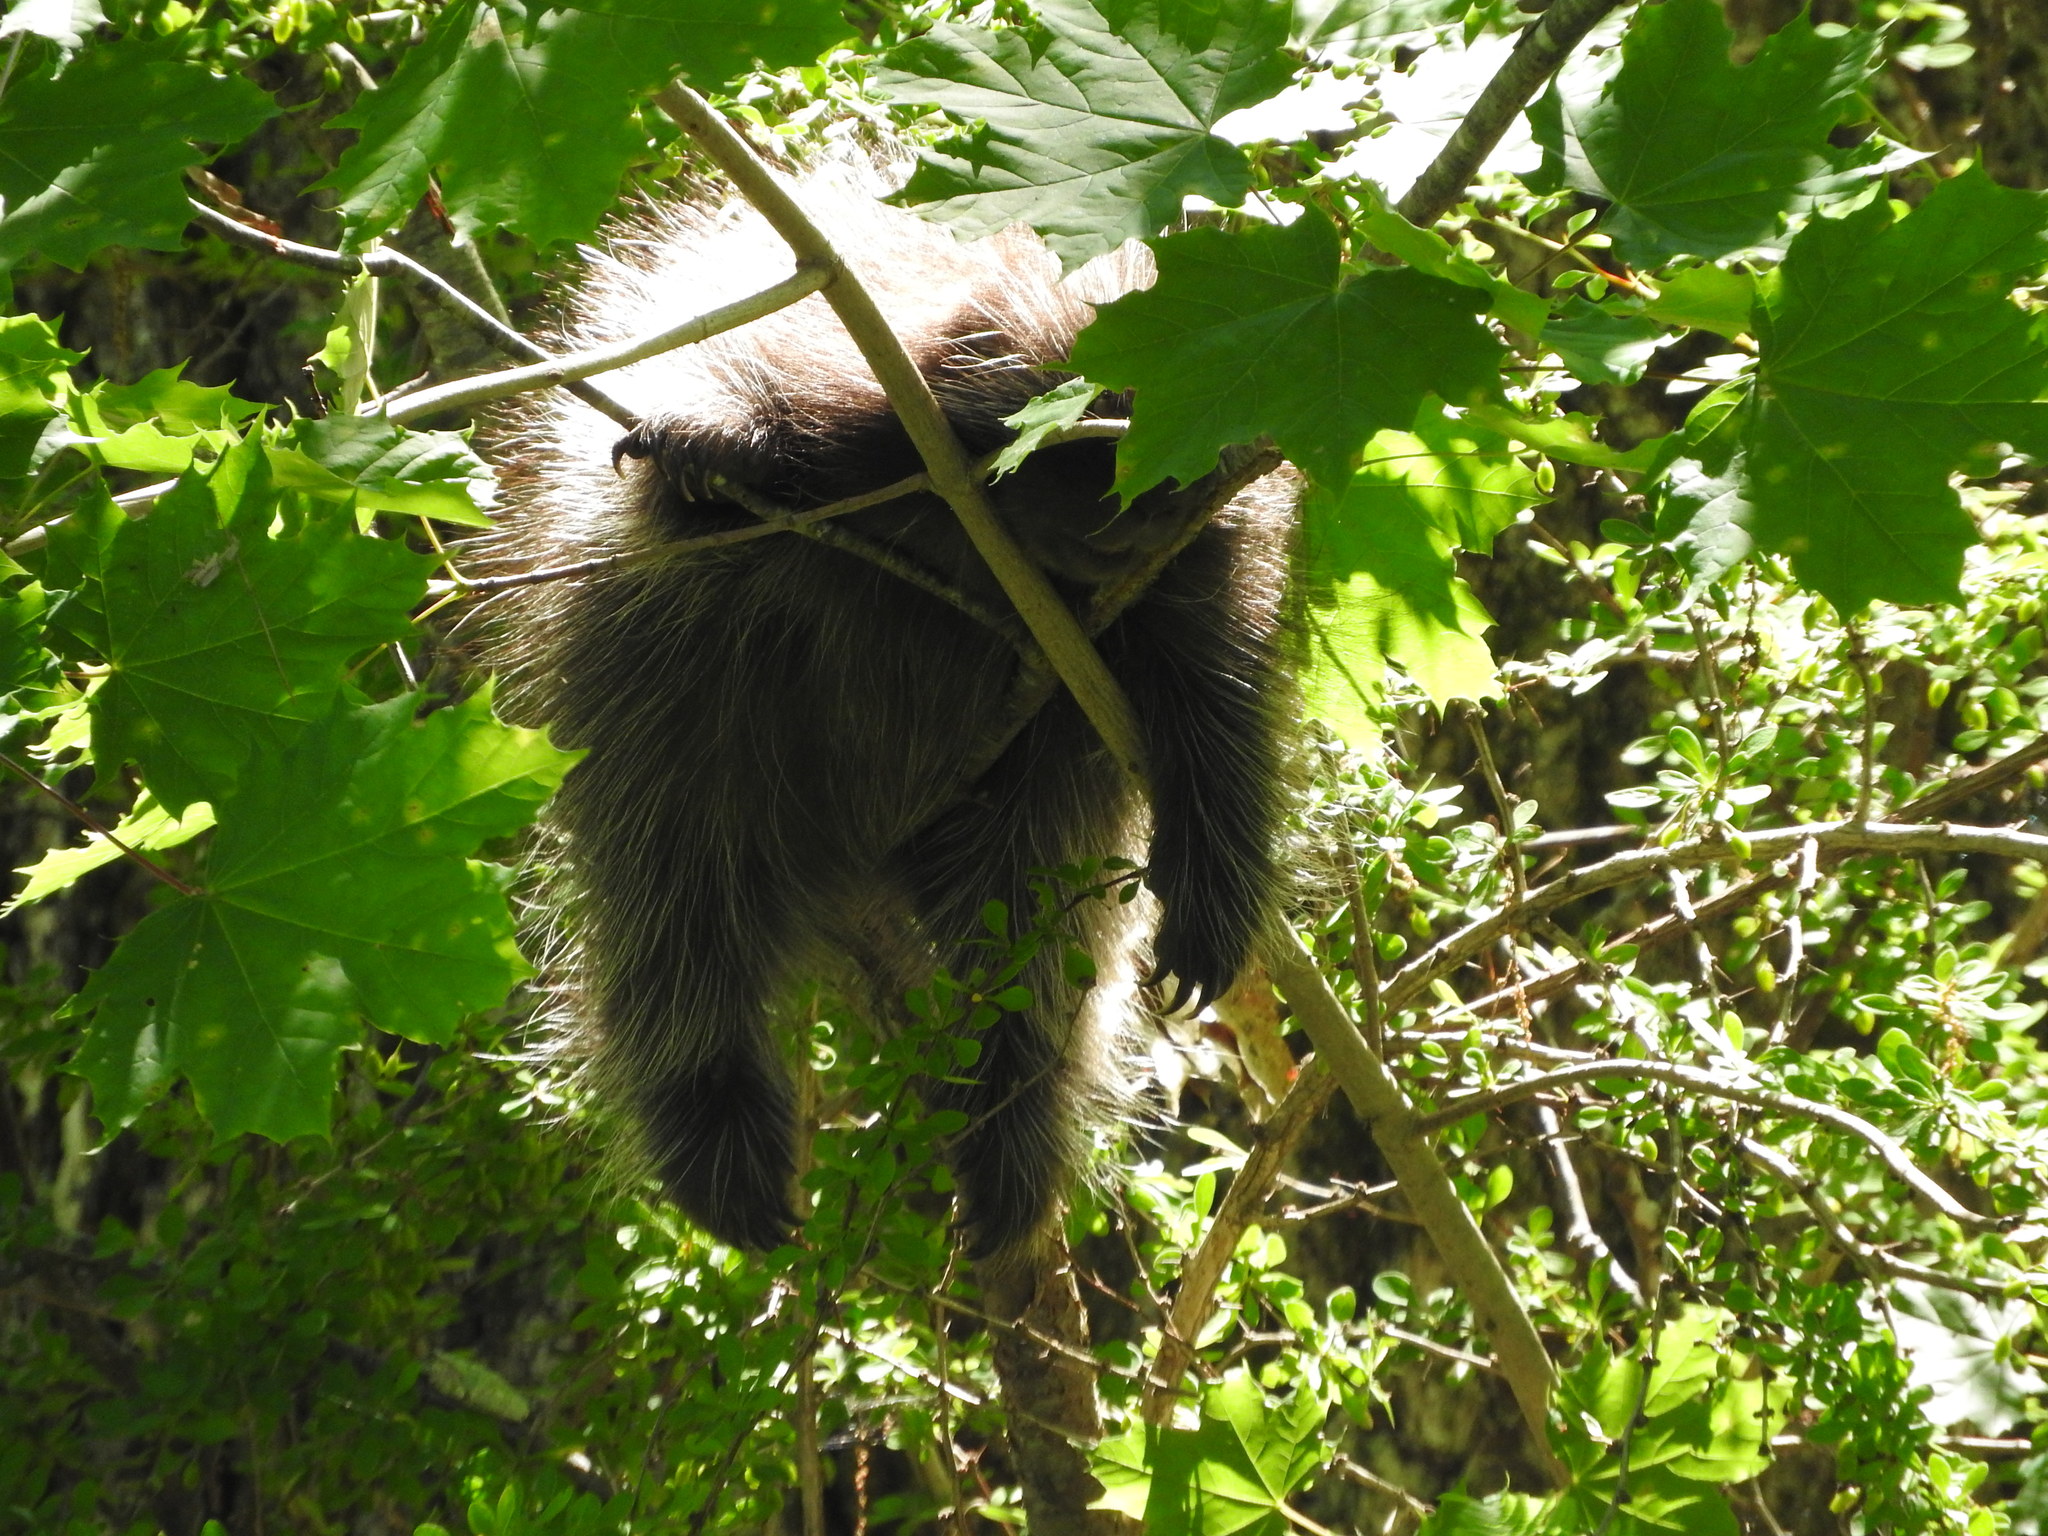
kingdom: Animalia
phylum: Chordata
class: Mammalia
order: Rodentia
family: Erethizontidae
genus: Erethizon
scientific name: Erethizon dorsatus
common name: North american porcupine
